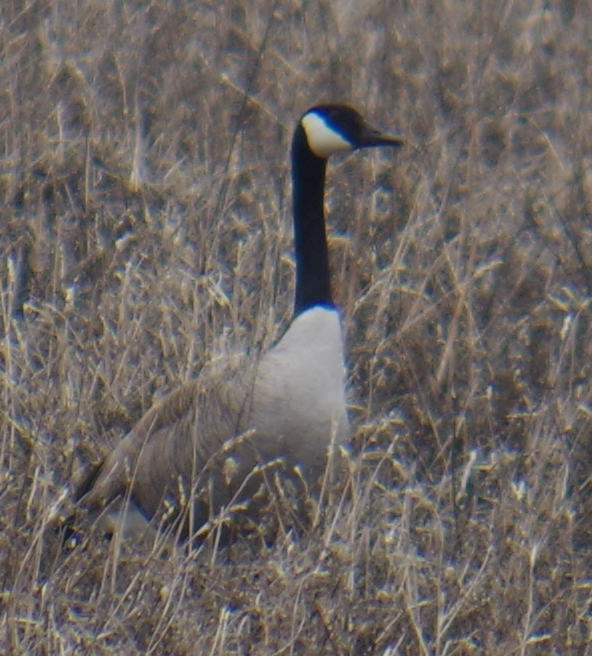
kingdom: Animalia
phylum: Chordata
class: Aves
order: Anseriformes
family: Anatidae
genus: Branta
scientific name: Branta canadensis
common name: Canada goose
